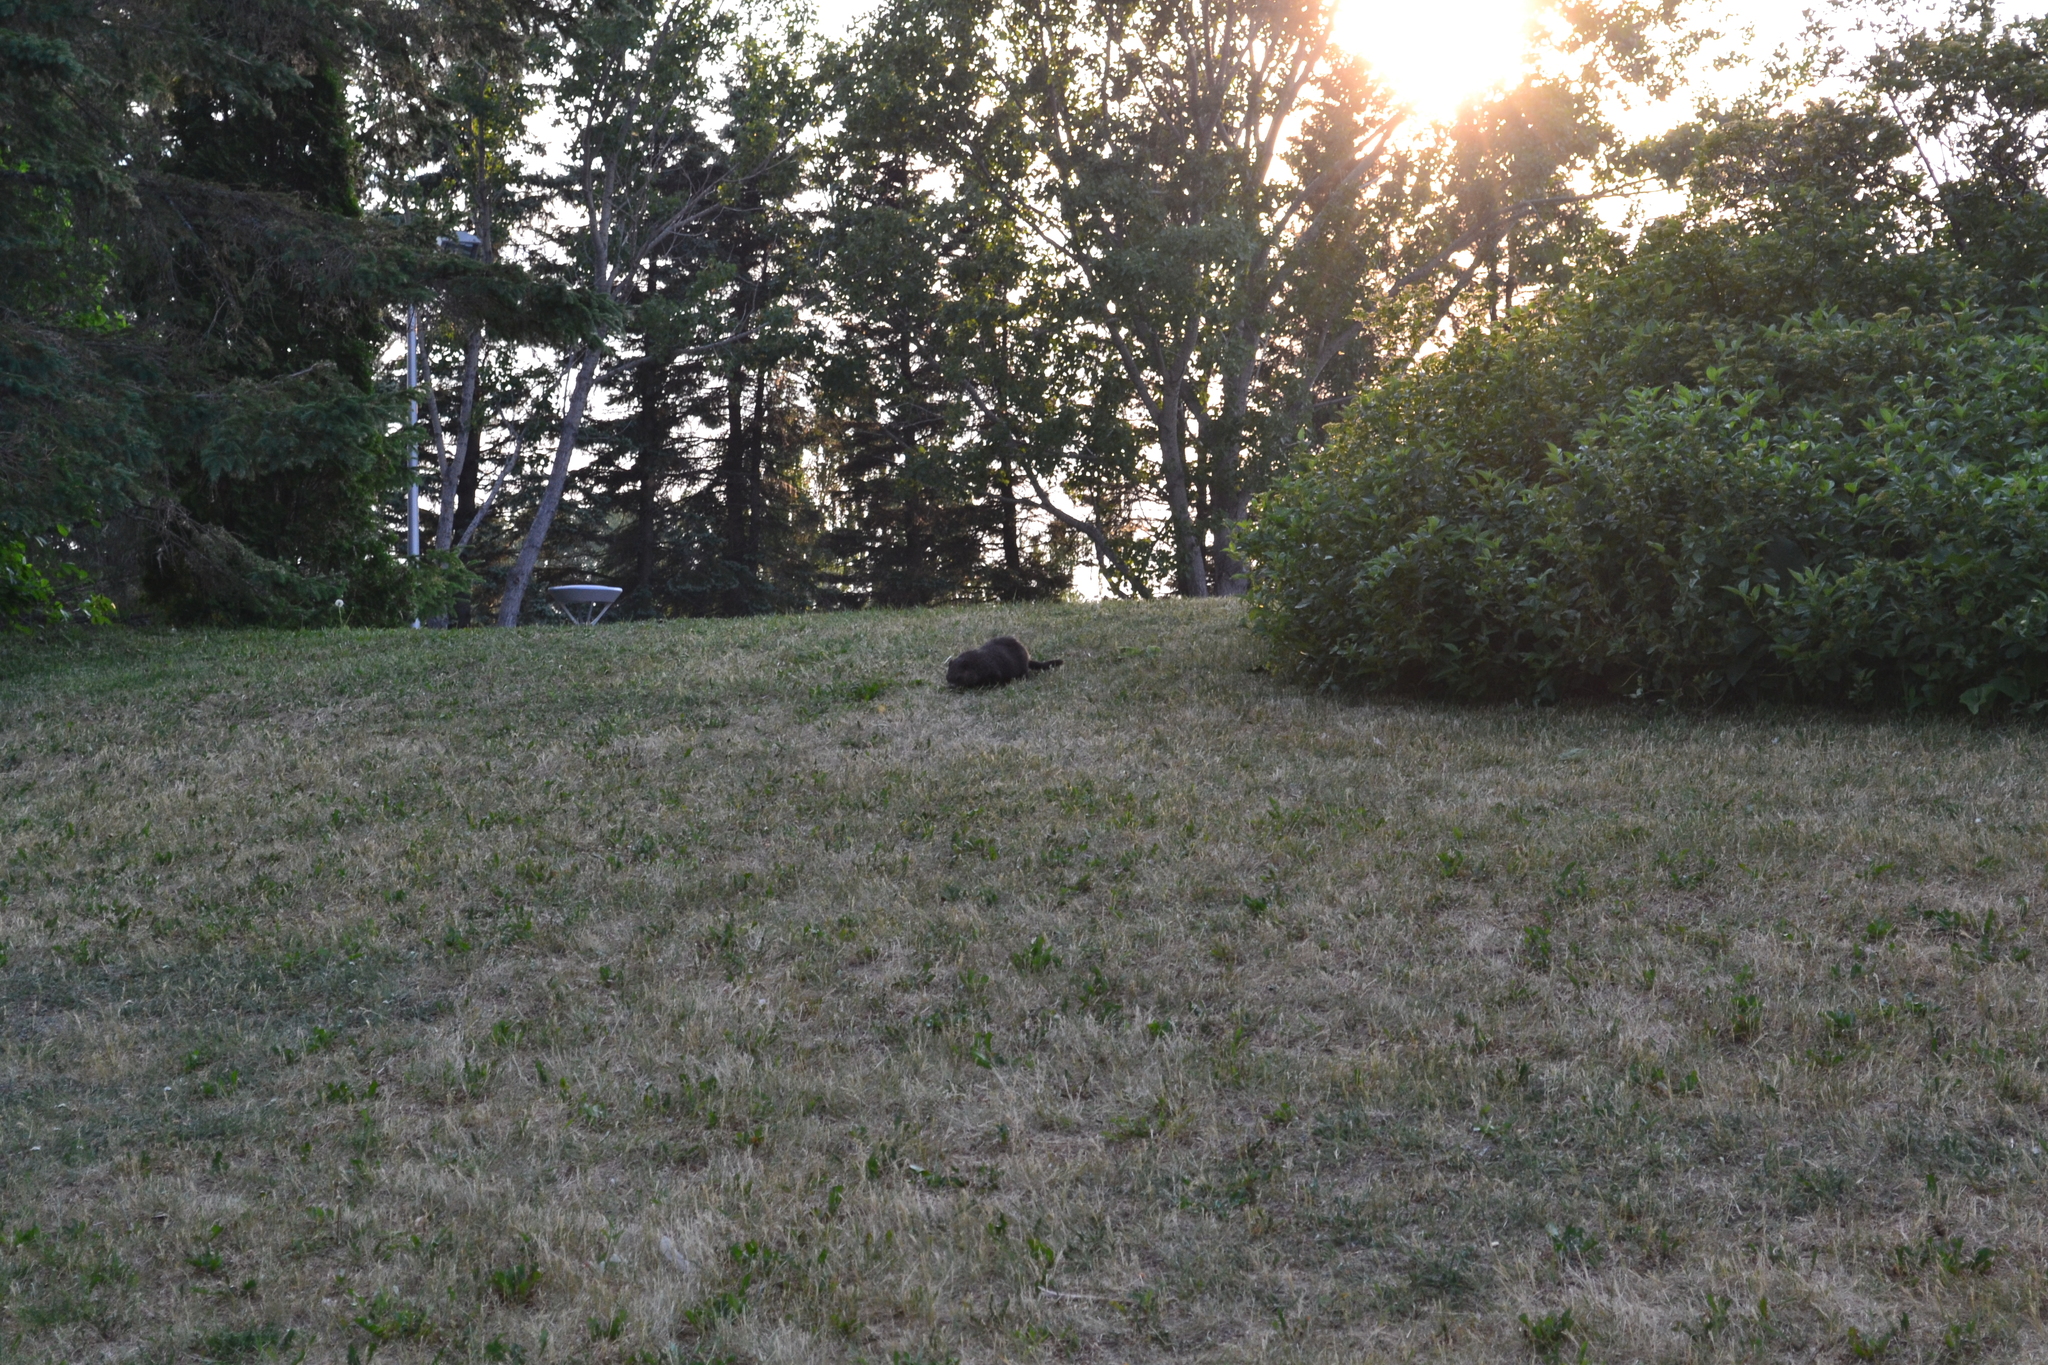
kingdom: Animalia
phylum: Chordata
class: Mammalia
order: Rodentia
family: Sciuridae
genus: Marmota
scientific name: Marmota monax
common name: Groundhog
